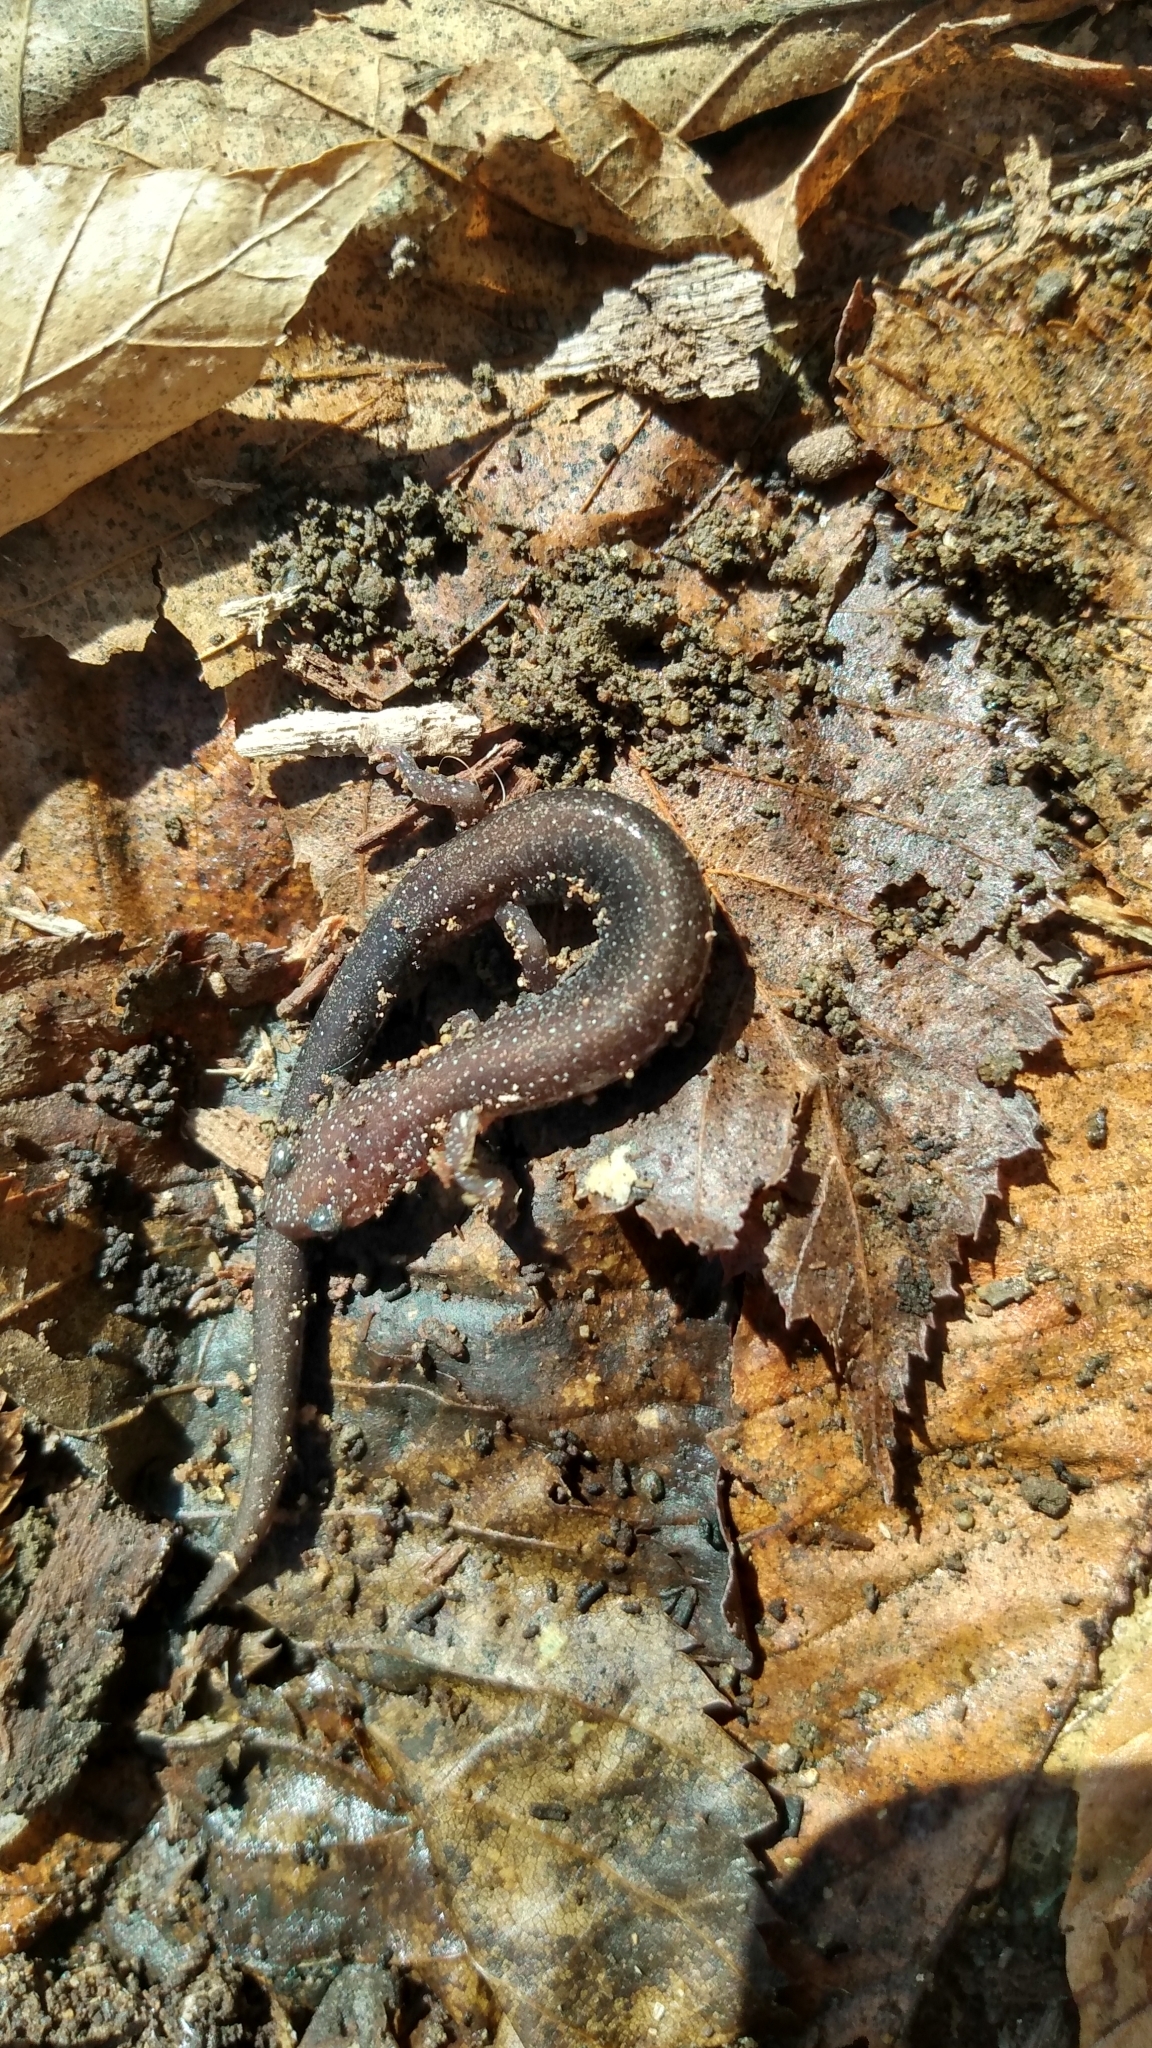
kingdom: Animalia
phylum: Chordata
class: Amphibia
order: Caudata
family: Plethodontidae
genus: Plethodon
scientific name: Plethodon cinereus
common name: Redback salamander
